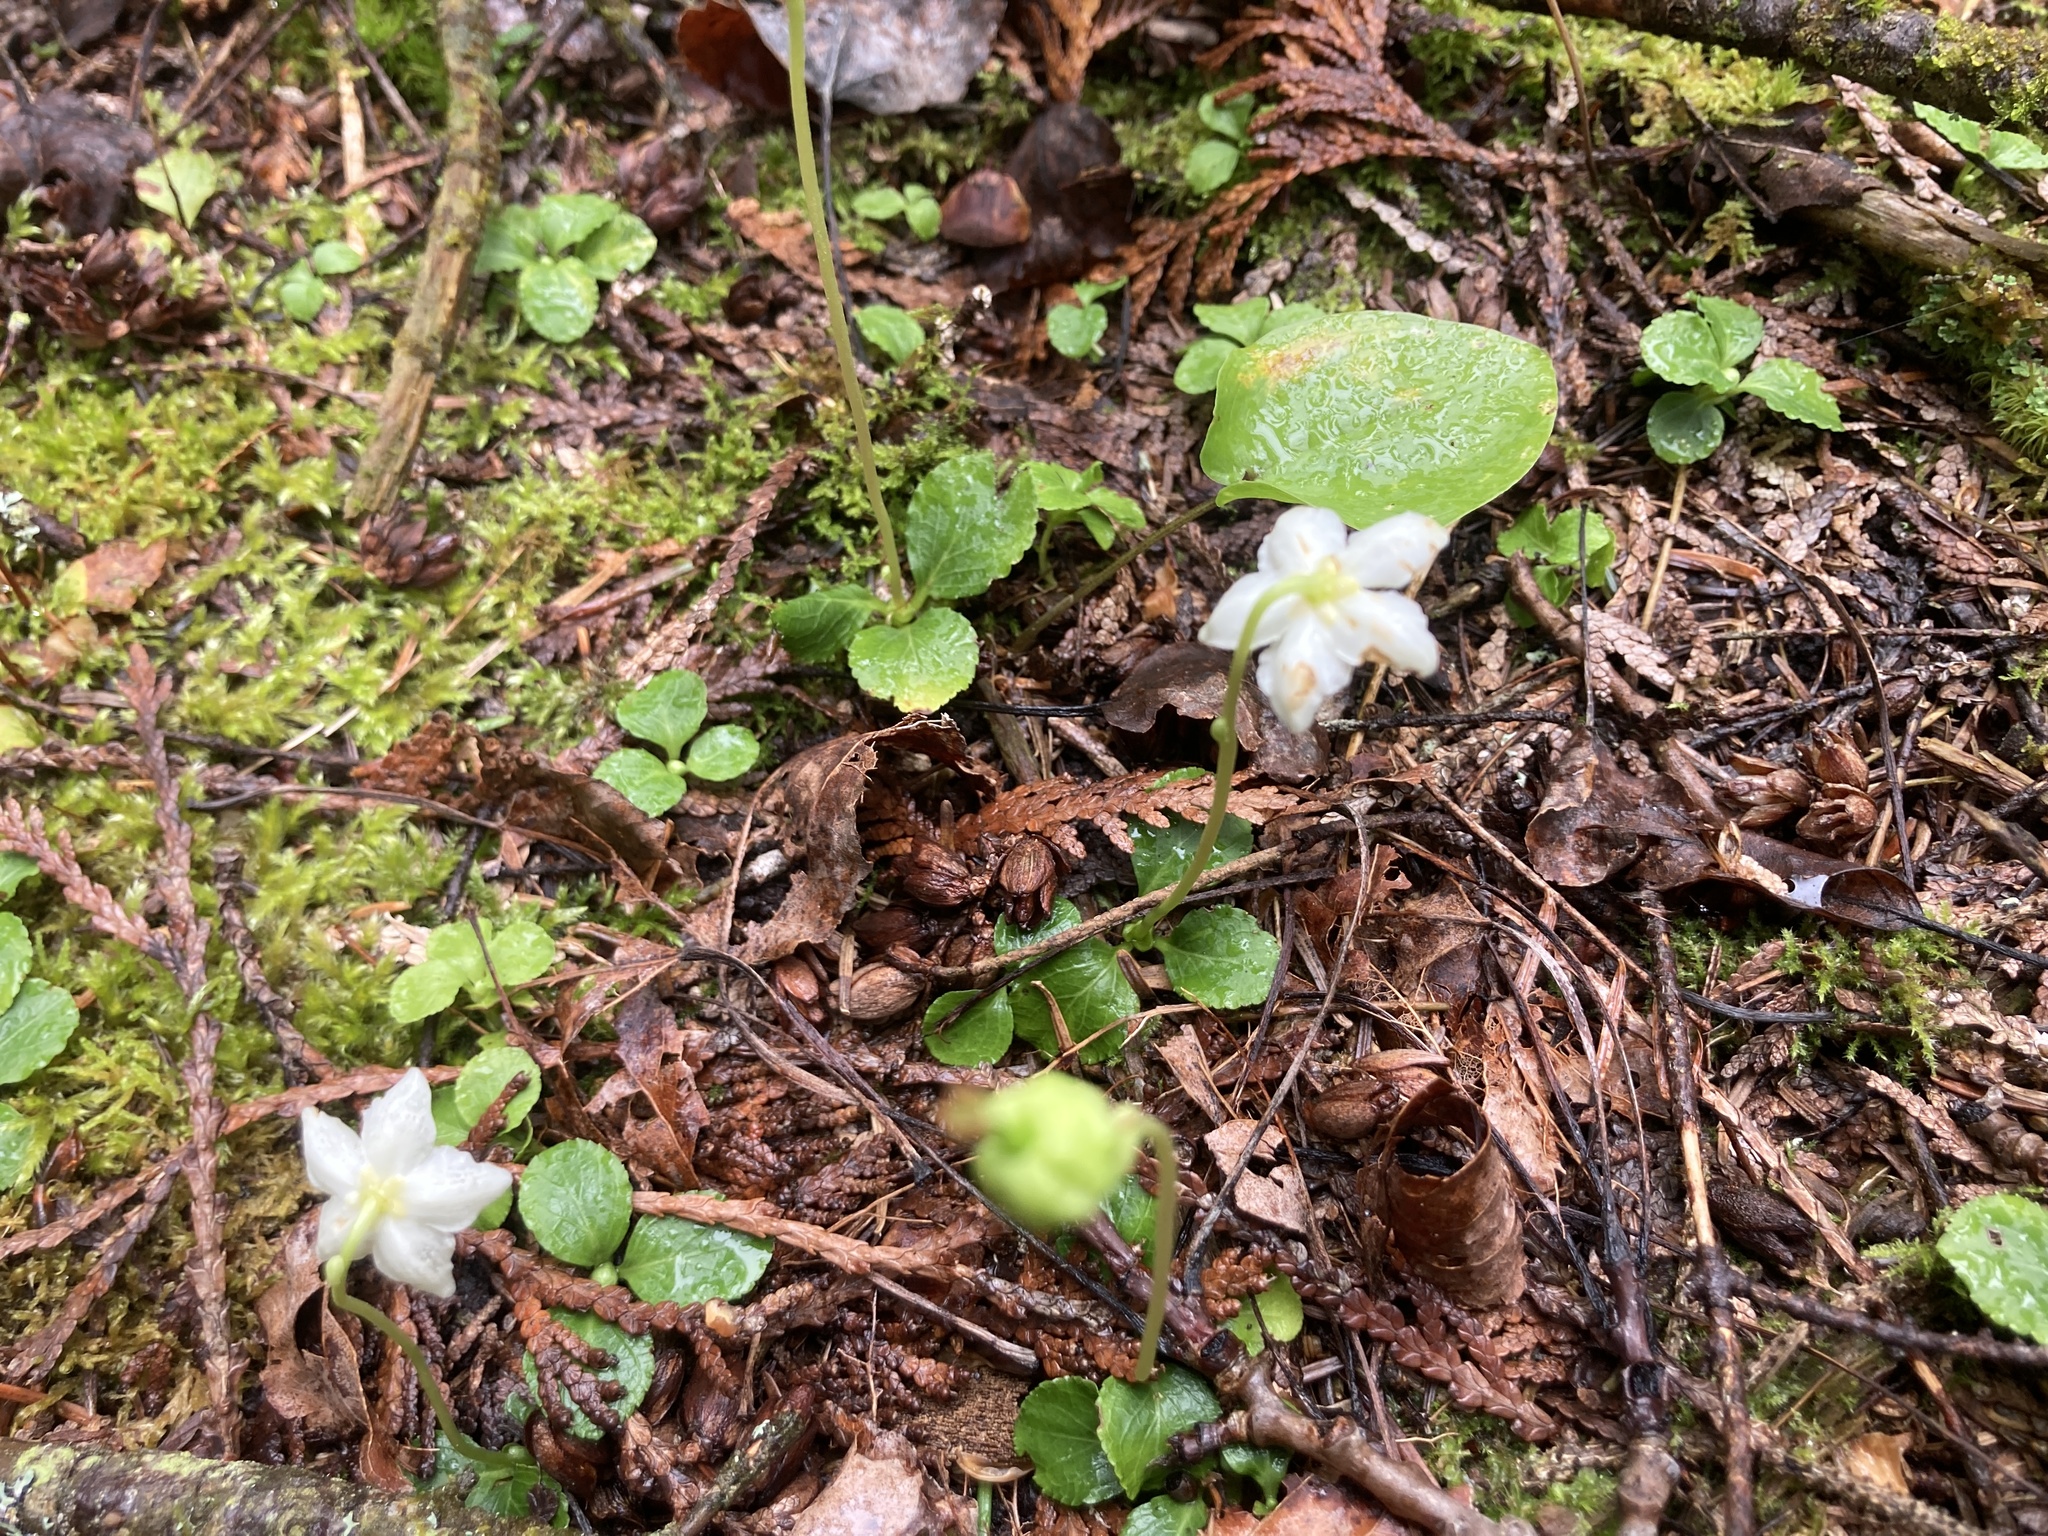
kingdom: Plantae
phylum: Tracheophyta
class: Magnoliopsida
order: Ericales
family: Ericaceae
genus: Moneses
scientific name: Moneses uniflora
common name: One-flowered wintergreen
